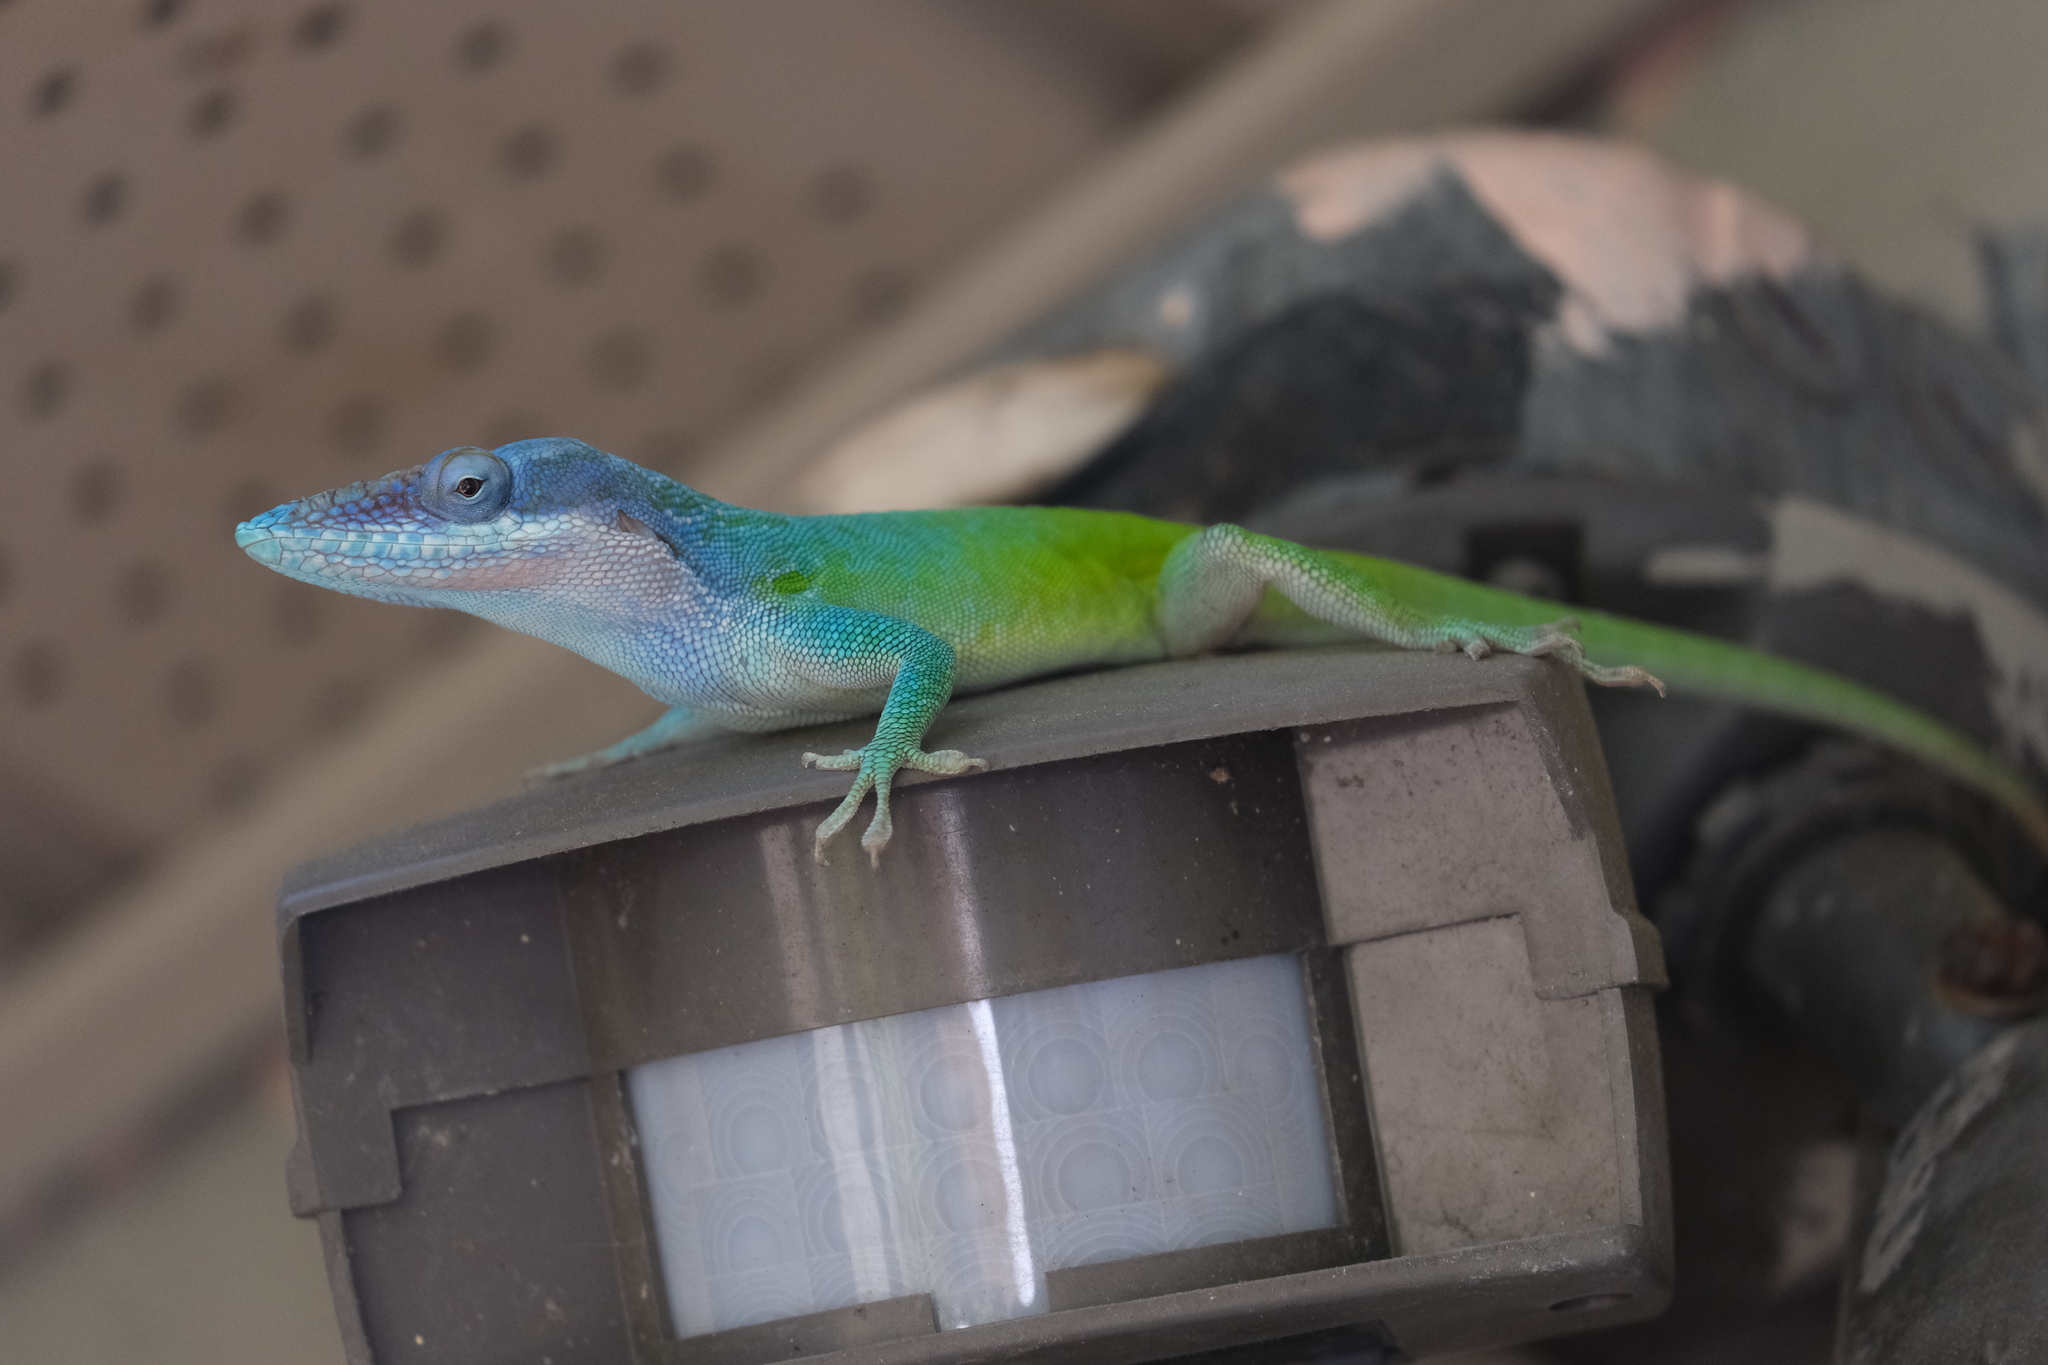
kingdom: Animalia
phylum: Chordata
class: Squamata
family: Dactyloidae
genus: Anolis
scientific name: Anolis allisoni
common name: Allison's anole
